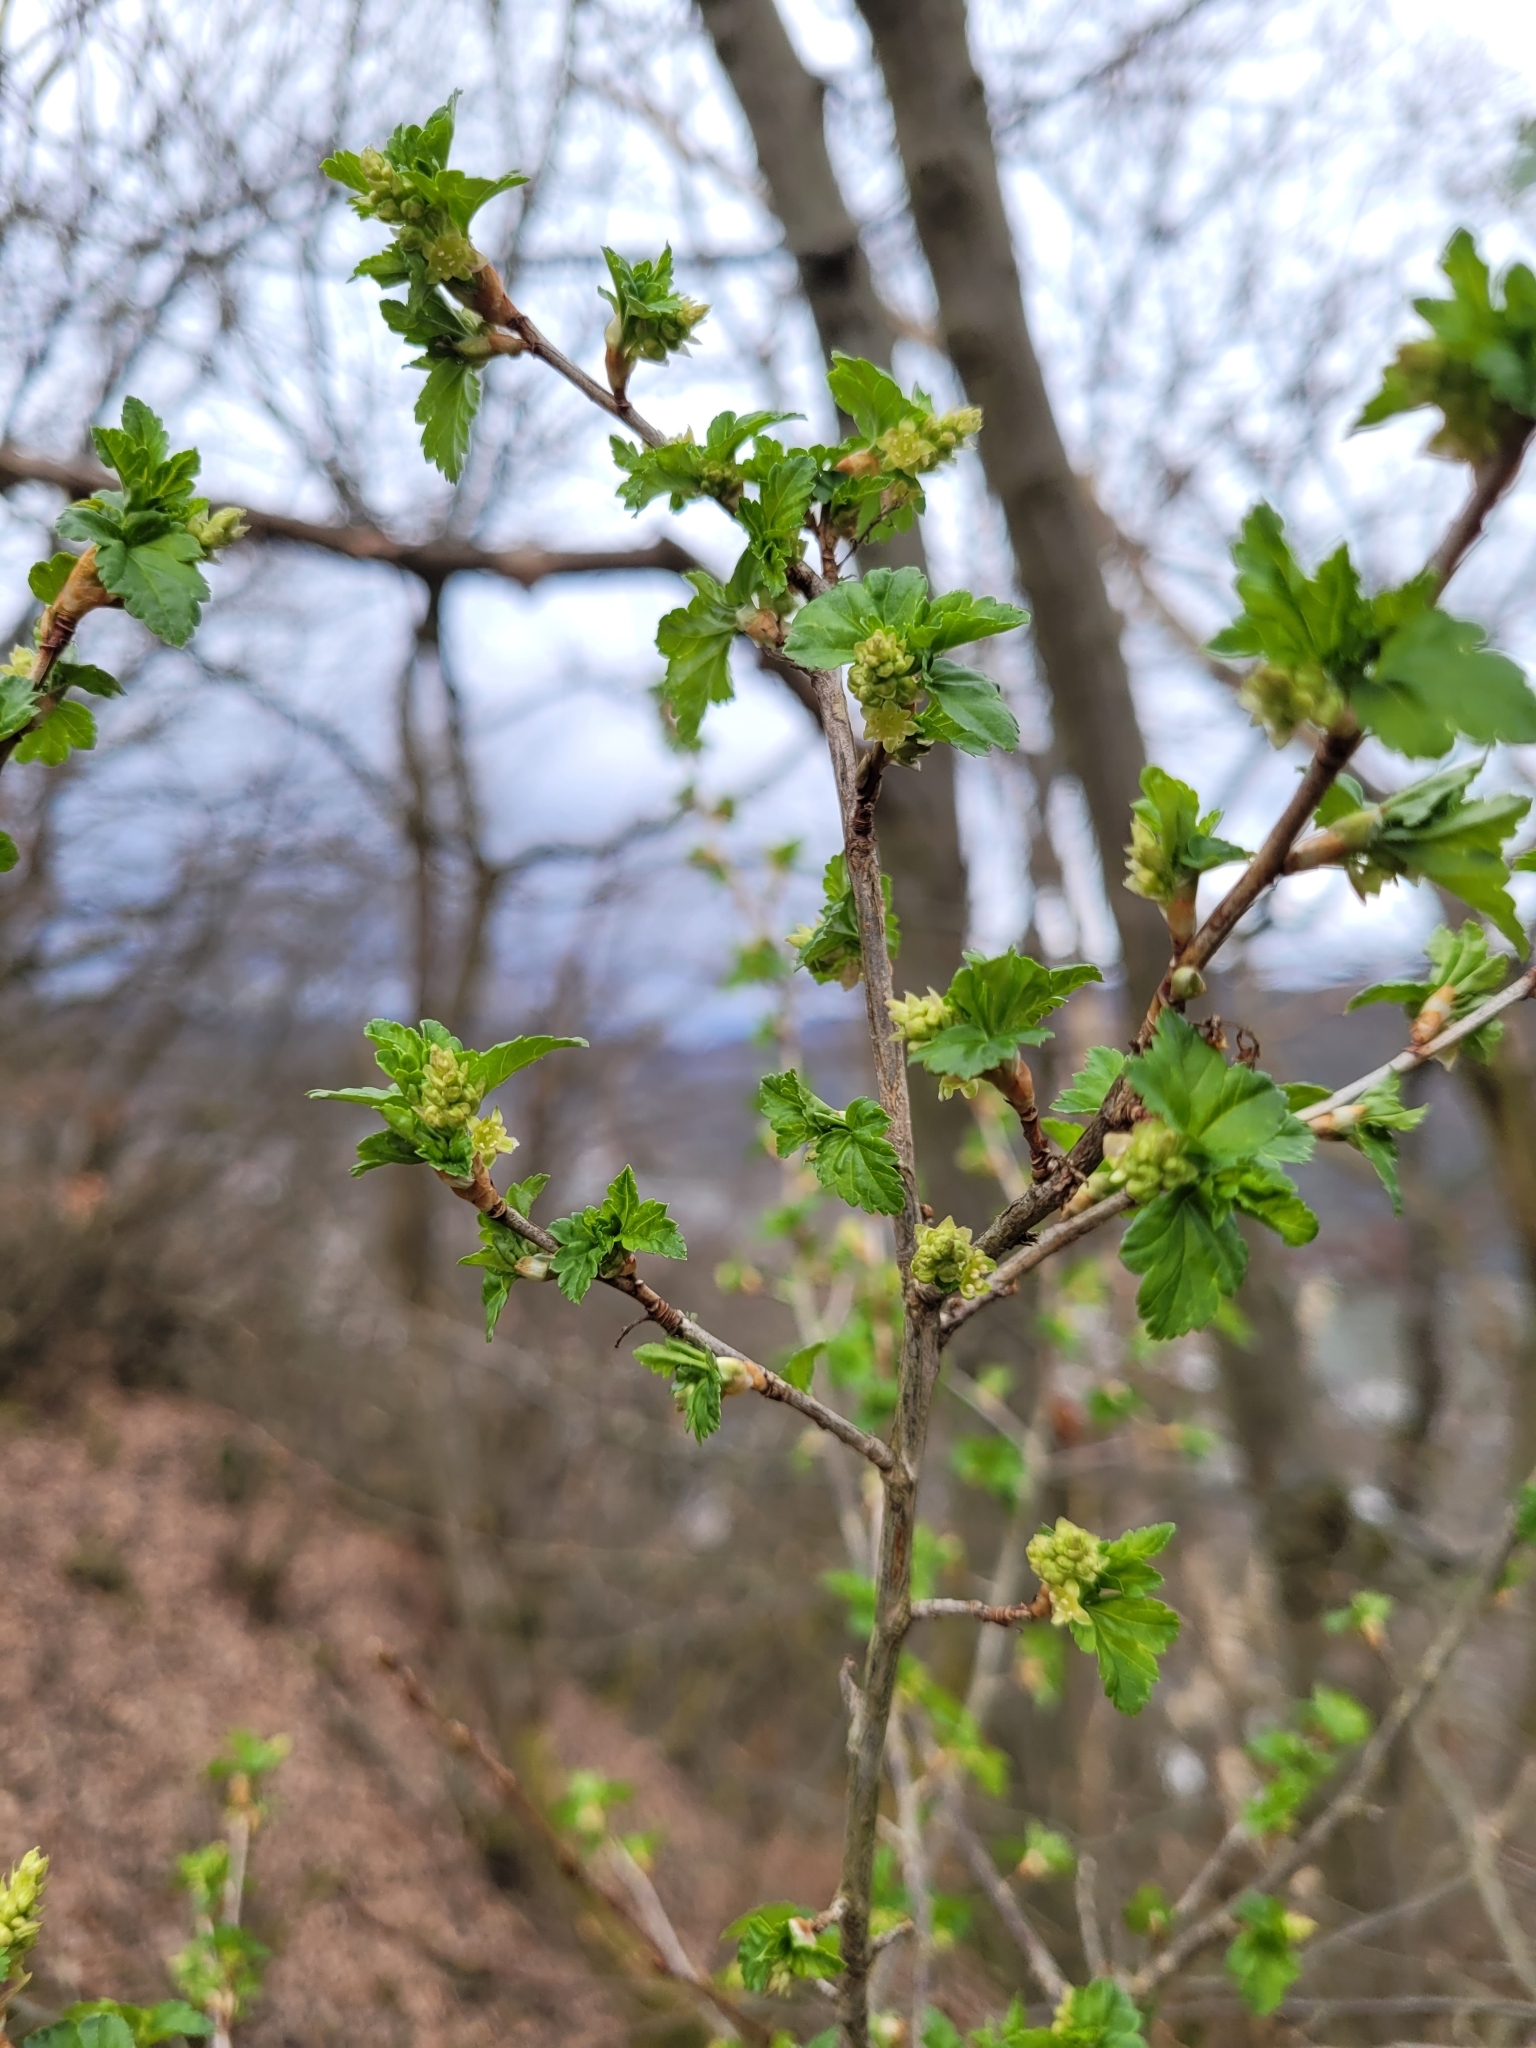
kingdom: Plantae
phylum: Tracheophyta
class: Magnoliopsida
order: Saxifragales
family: Grossulariaceae
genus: Ribes
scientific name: Ribes alpinum
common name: Alpine currant
